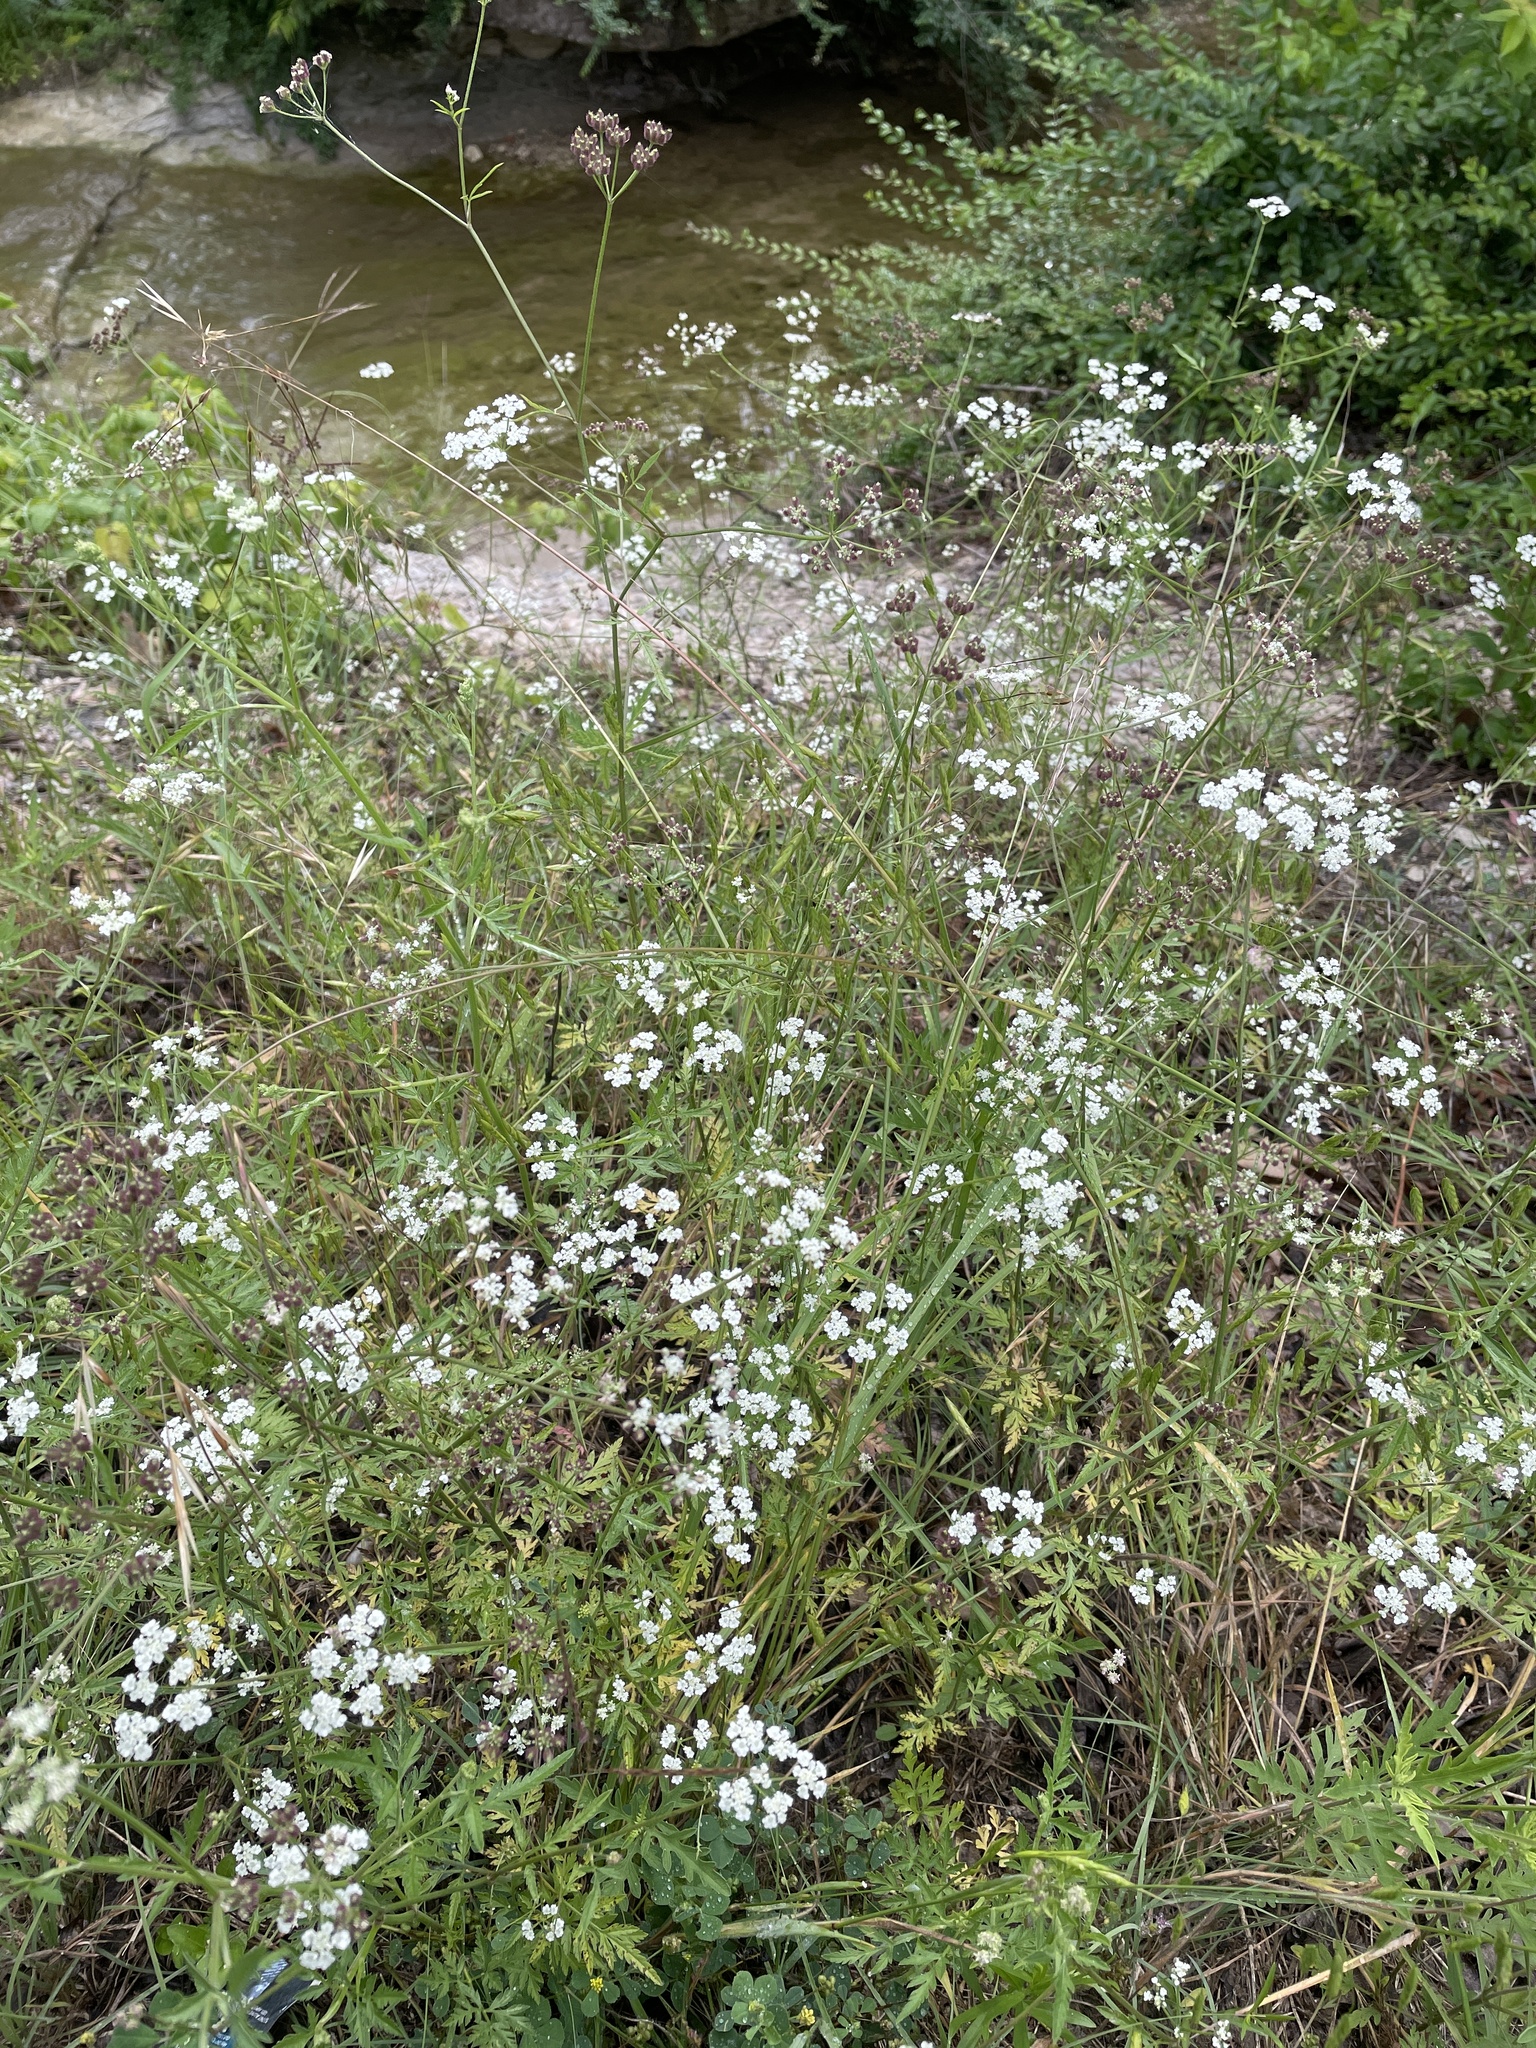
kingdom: Plantae
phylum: Tracheophyta
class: Magnoliopsida
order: Apiales
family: Apiaceae
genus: Torilis
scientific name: Torilis arvensis
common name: Spreading hedge-parsley
